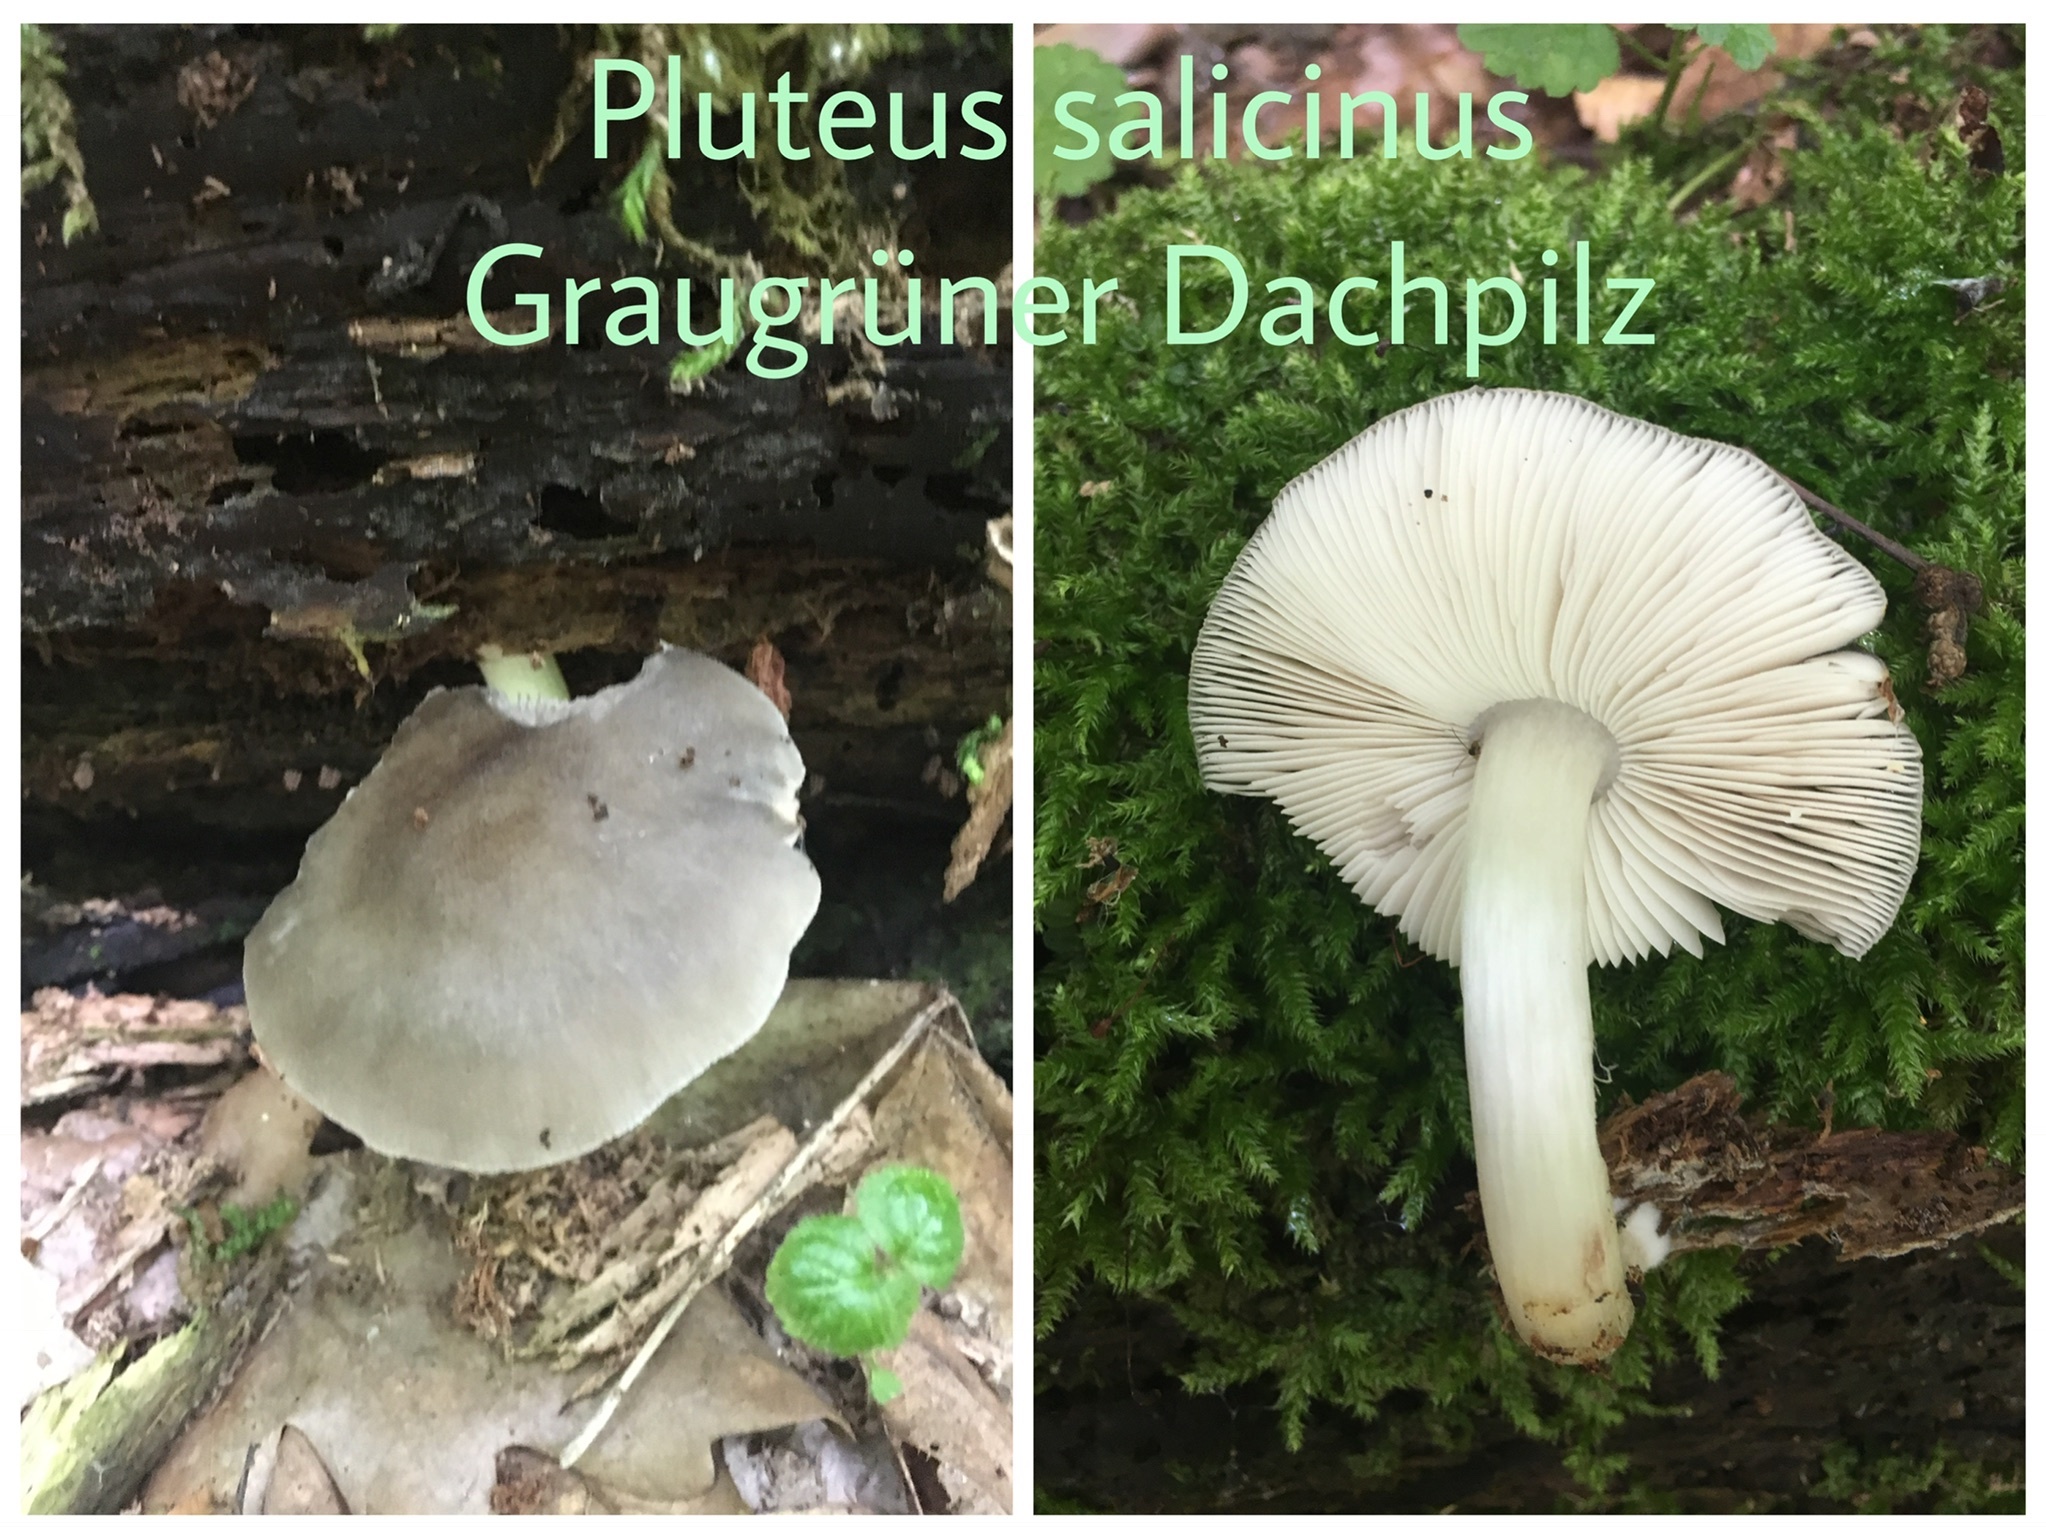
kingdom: Fungi
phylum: Basidiomycota
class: Agaricomycetes
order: Agaricales
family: Pluteaceae
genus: Pluteus
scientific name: Pluteus salicinus
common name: Willow shield
